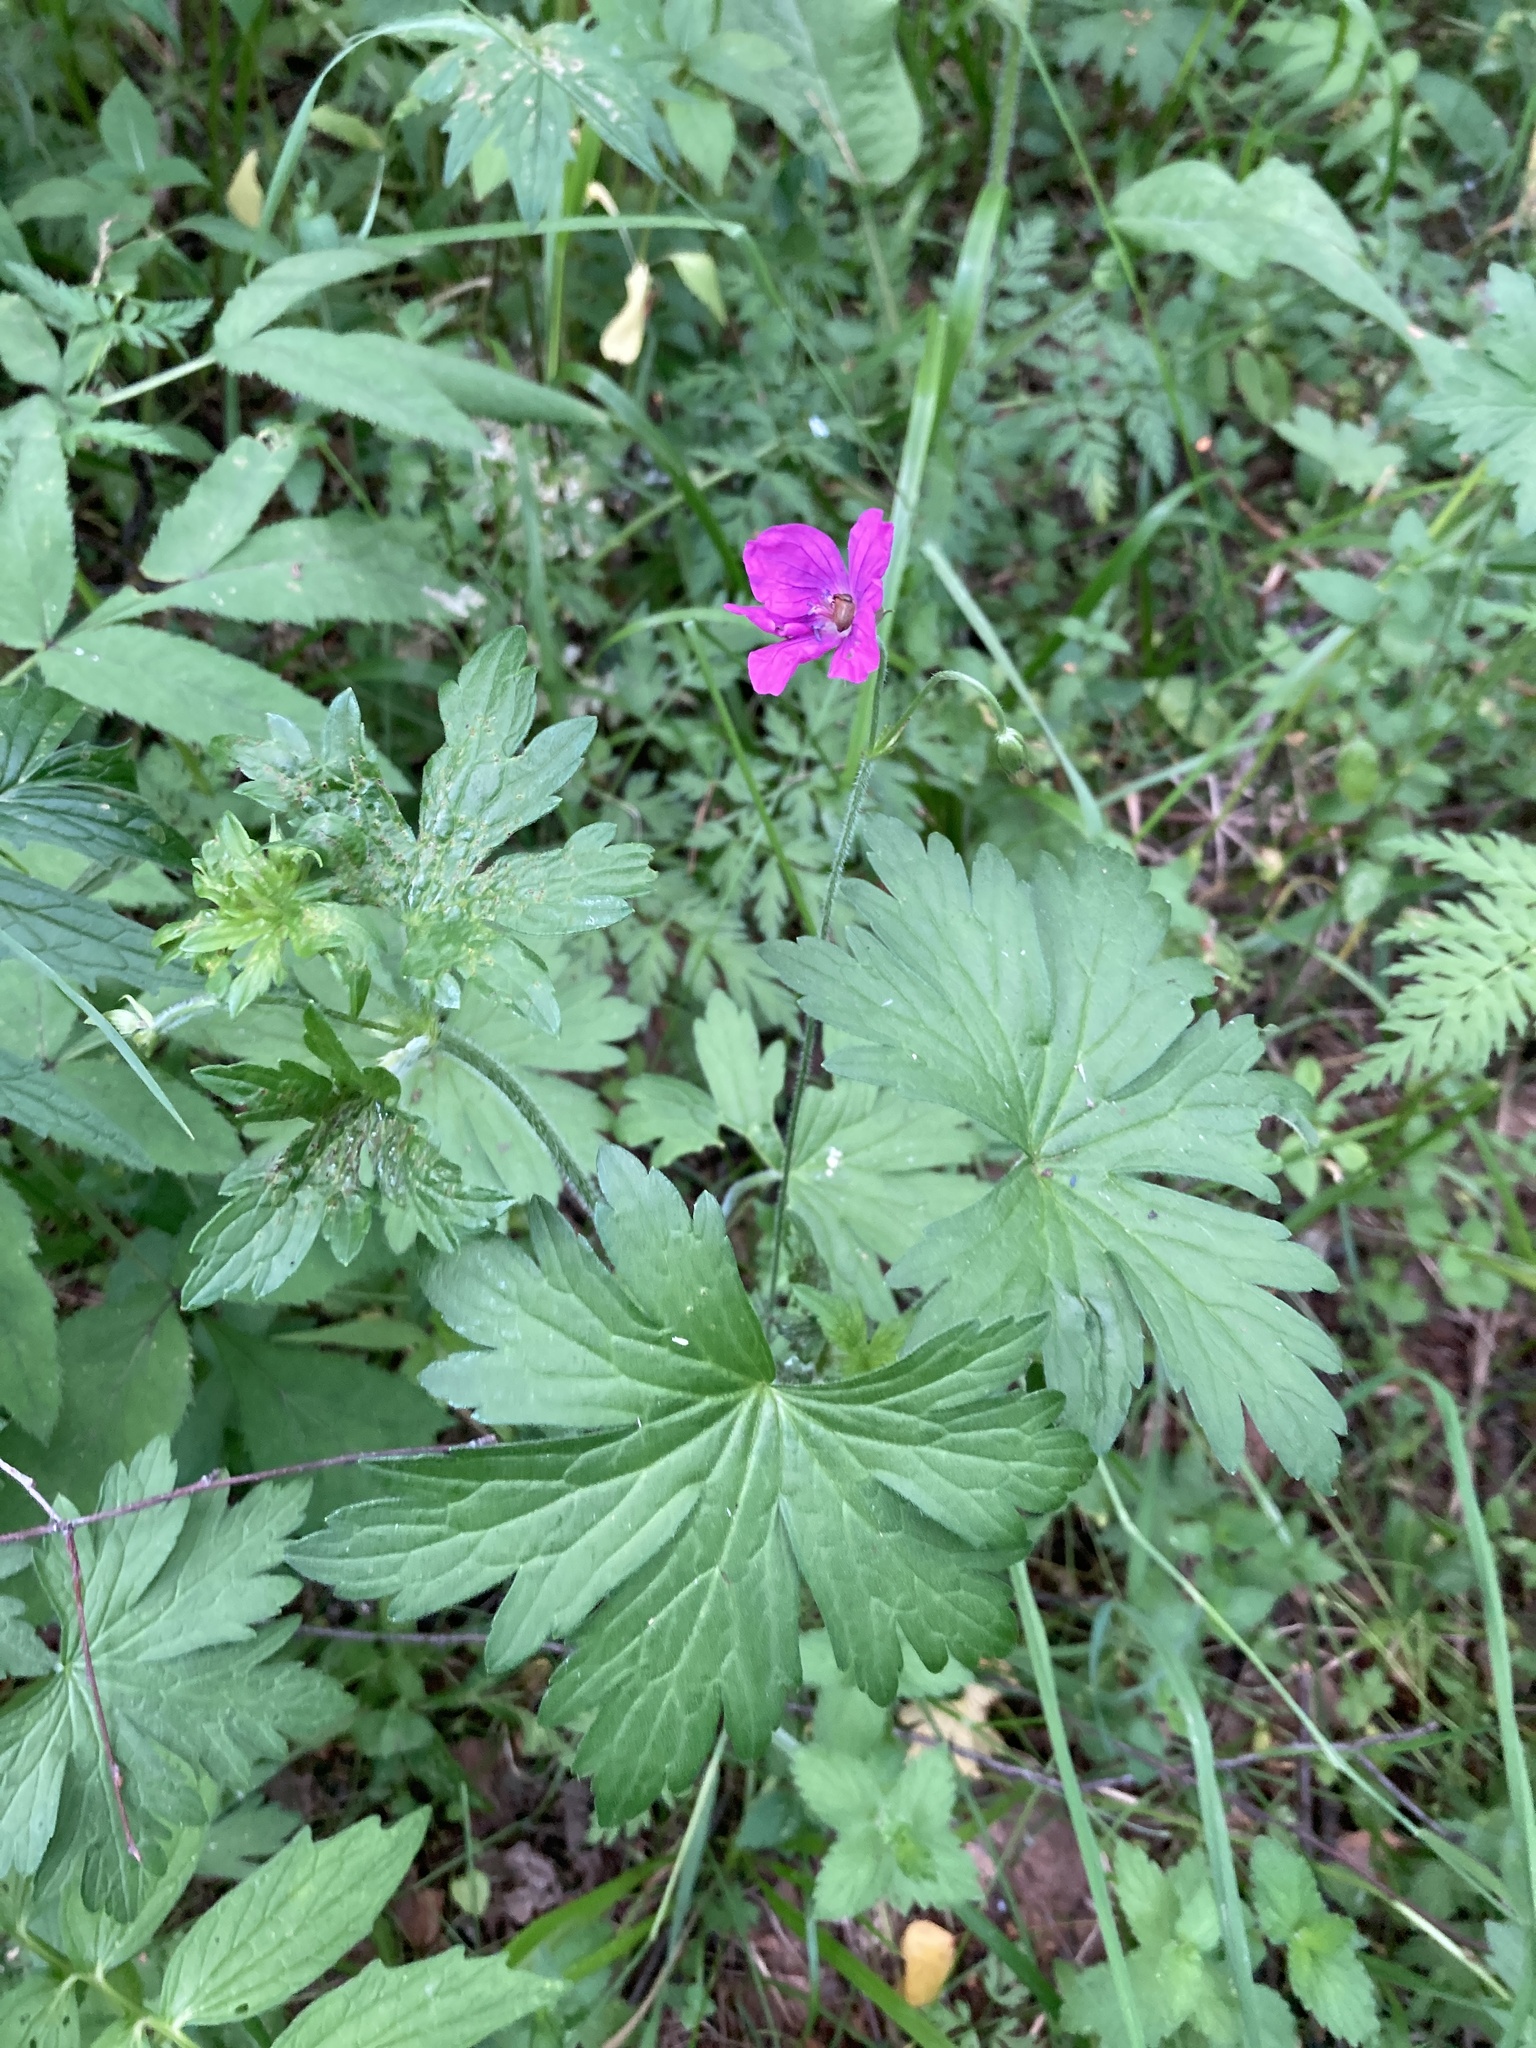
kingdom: Plantae
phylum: Tracheophyta
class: Magnoliopsida
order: Geraniales
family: Geraniaceae
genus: Geranium
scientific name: Geranium palustre
